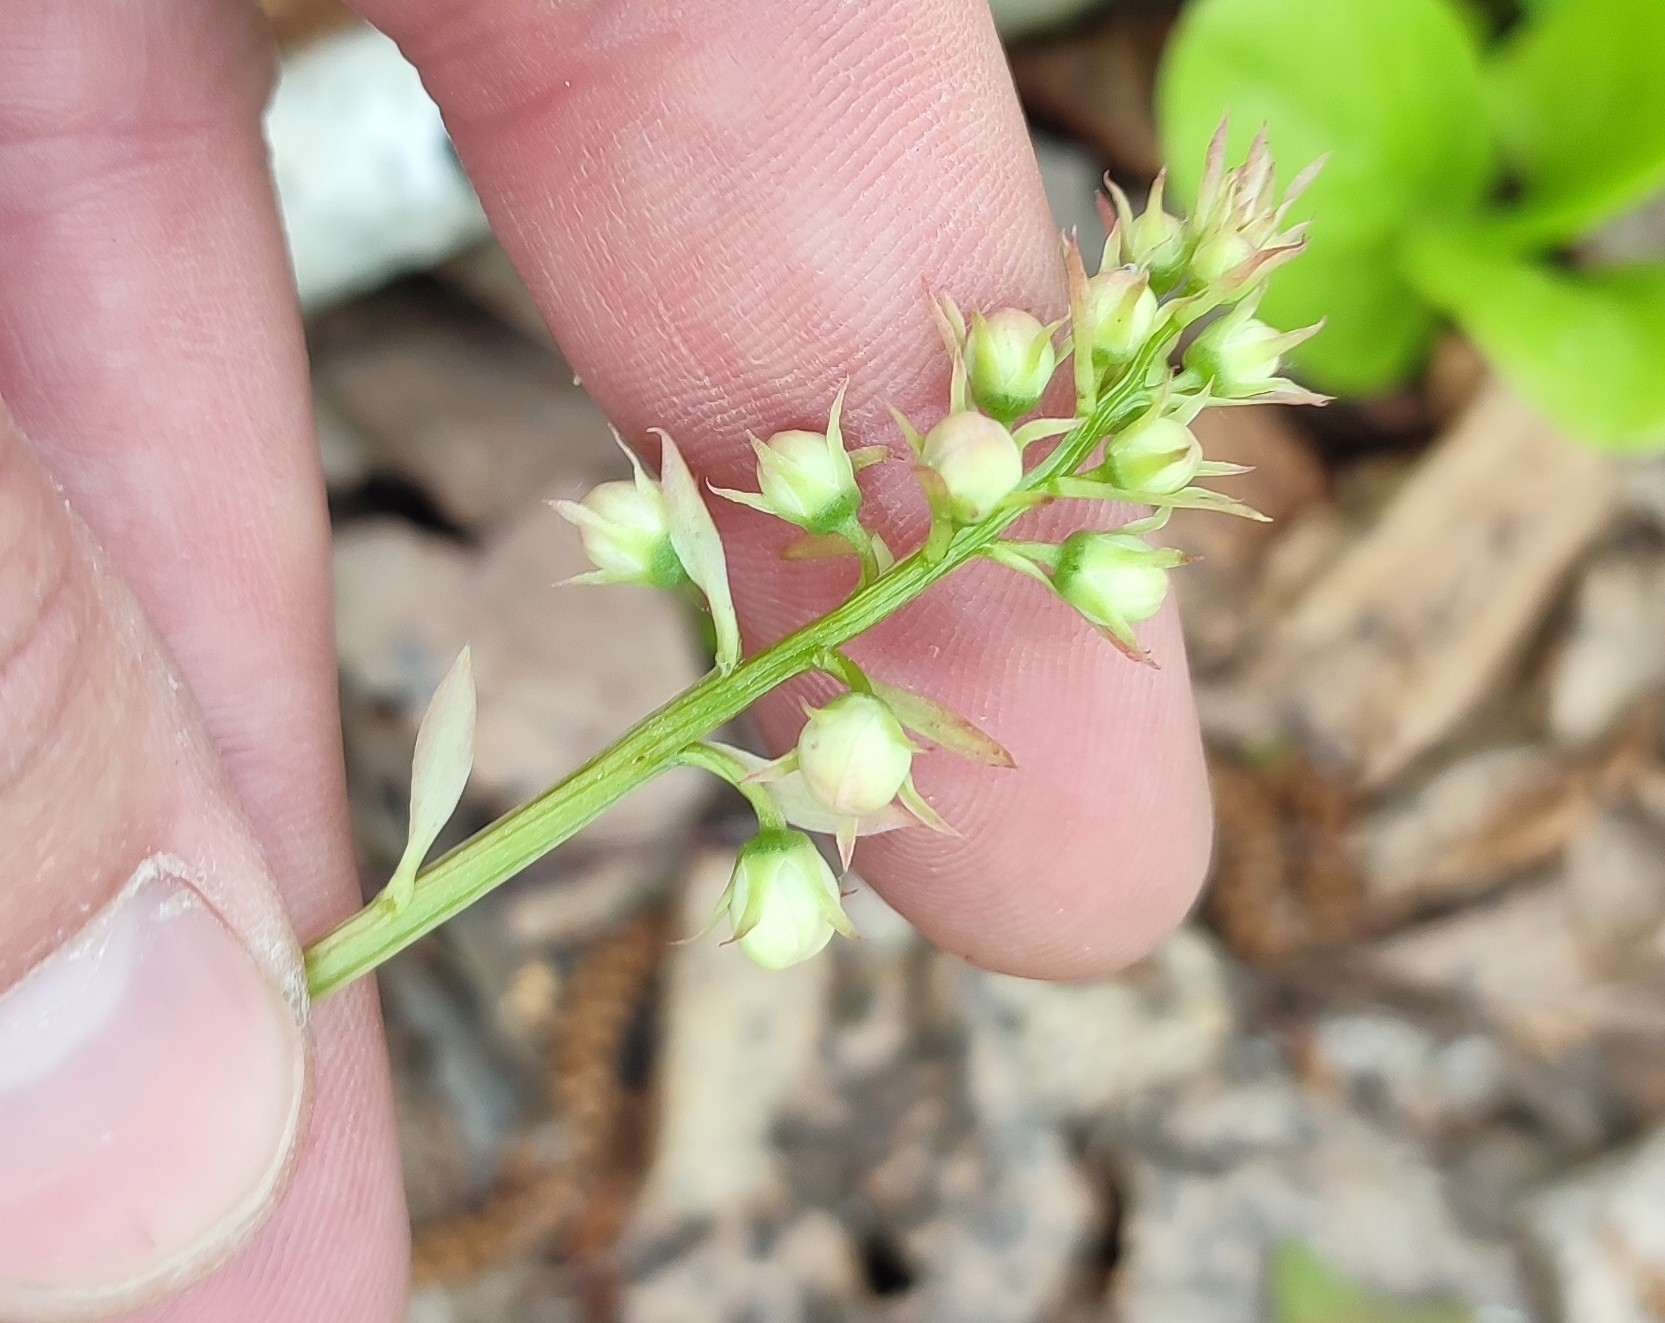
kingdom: Plantae
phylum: Tracheophyta
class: Magnoliopsida
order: Ericales
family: Ericaceae
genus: Pyrola
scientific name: Pyrola rotundifolia
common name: Round-leaved wintergreen
